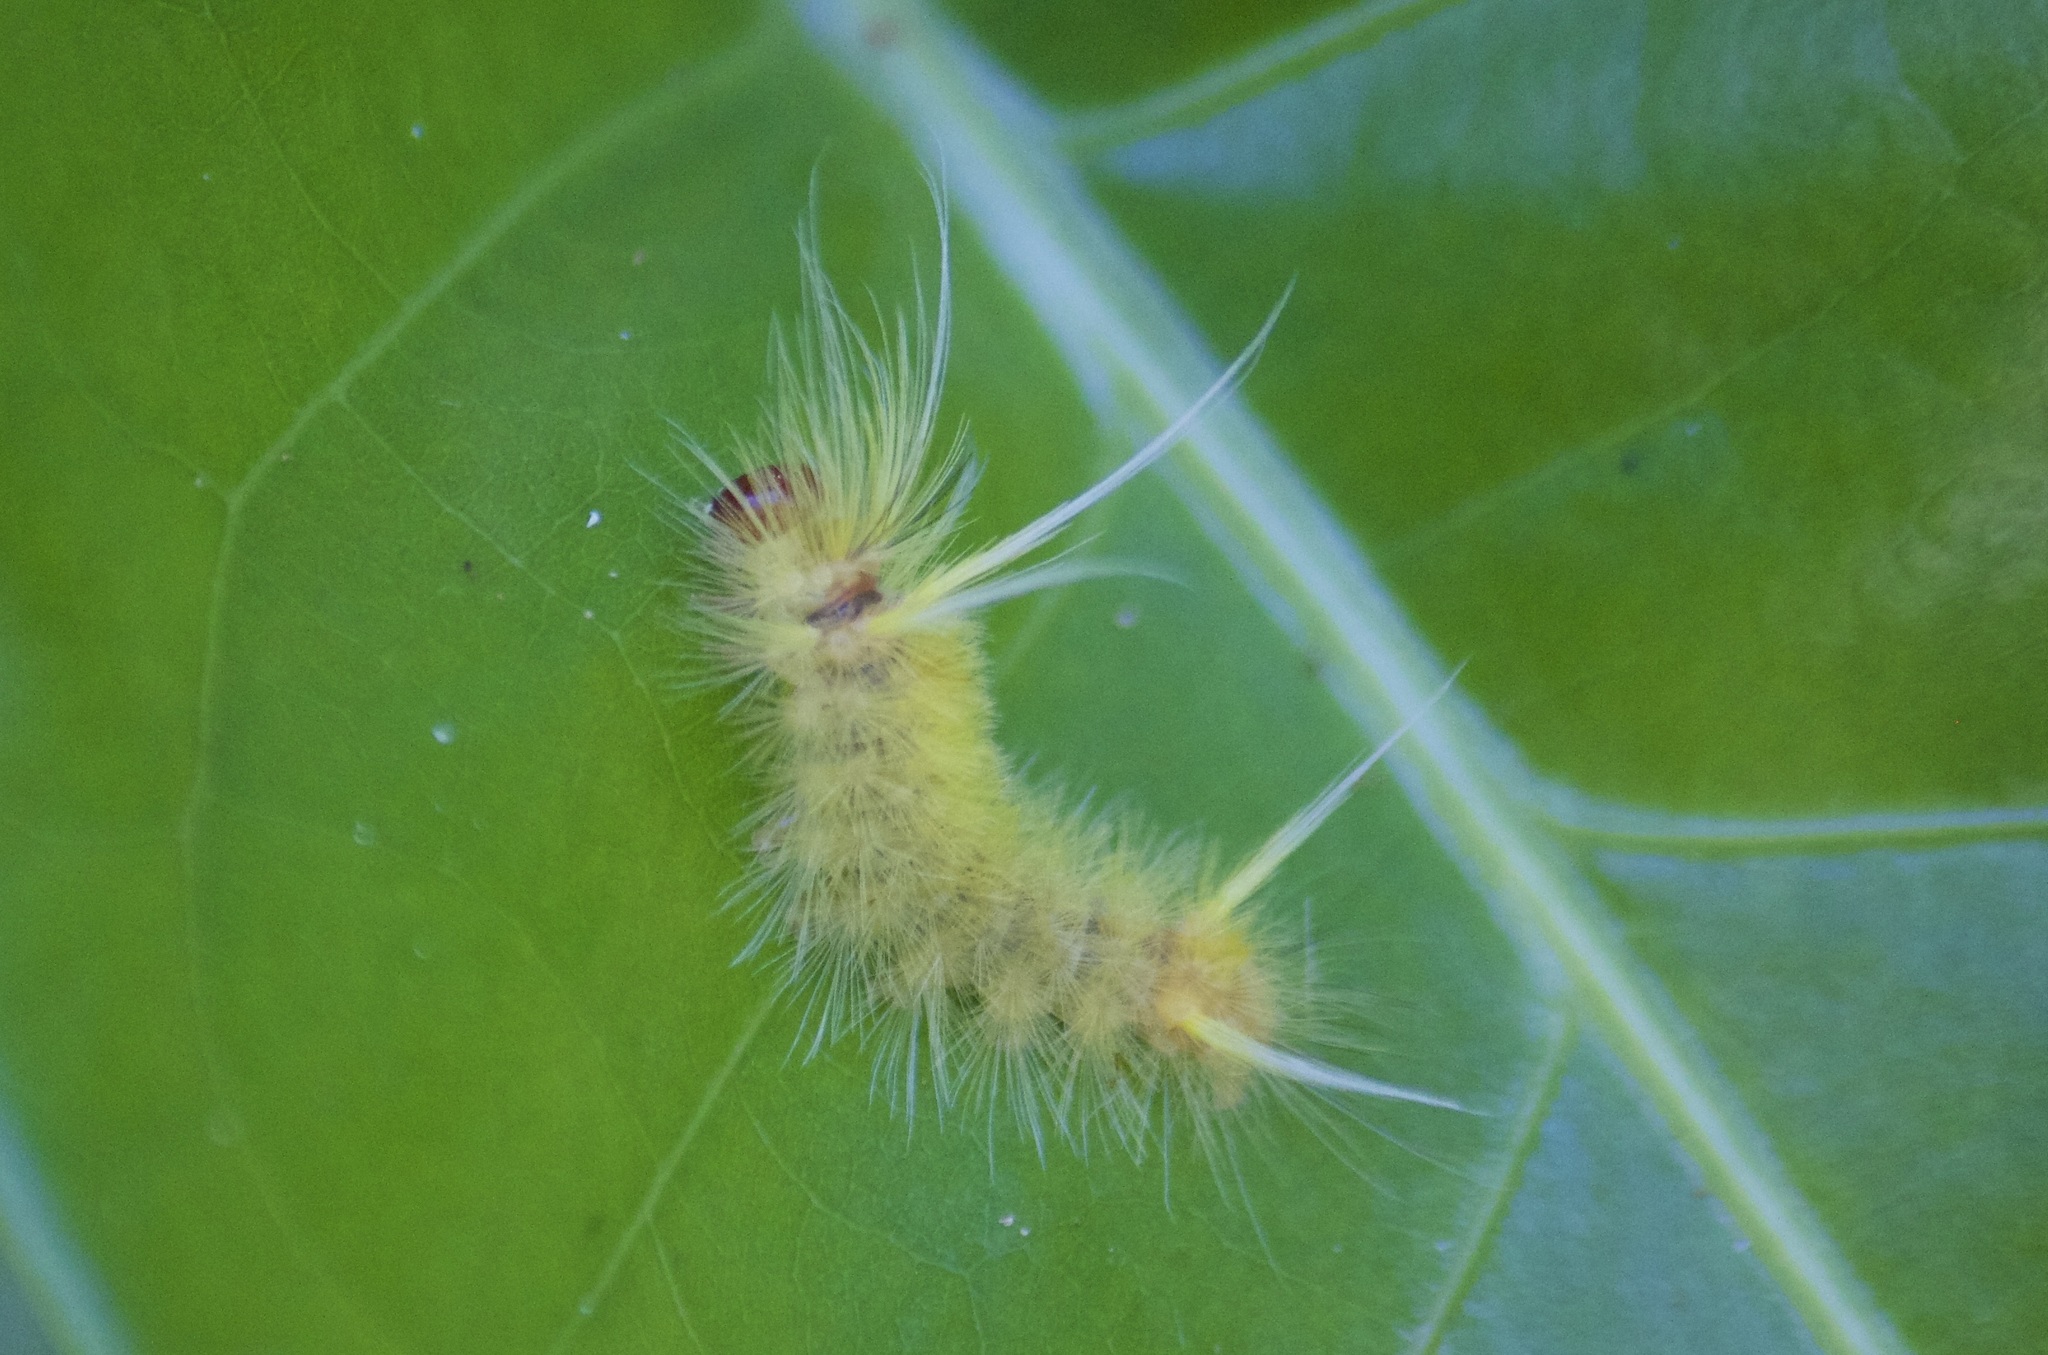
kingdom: Animalia
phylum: Arthropoda
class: Insecta
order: Lepidoptera
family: Erebidae
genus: Halysidota
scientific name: Halysidota cinctipes
